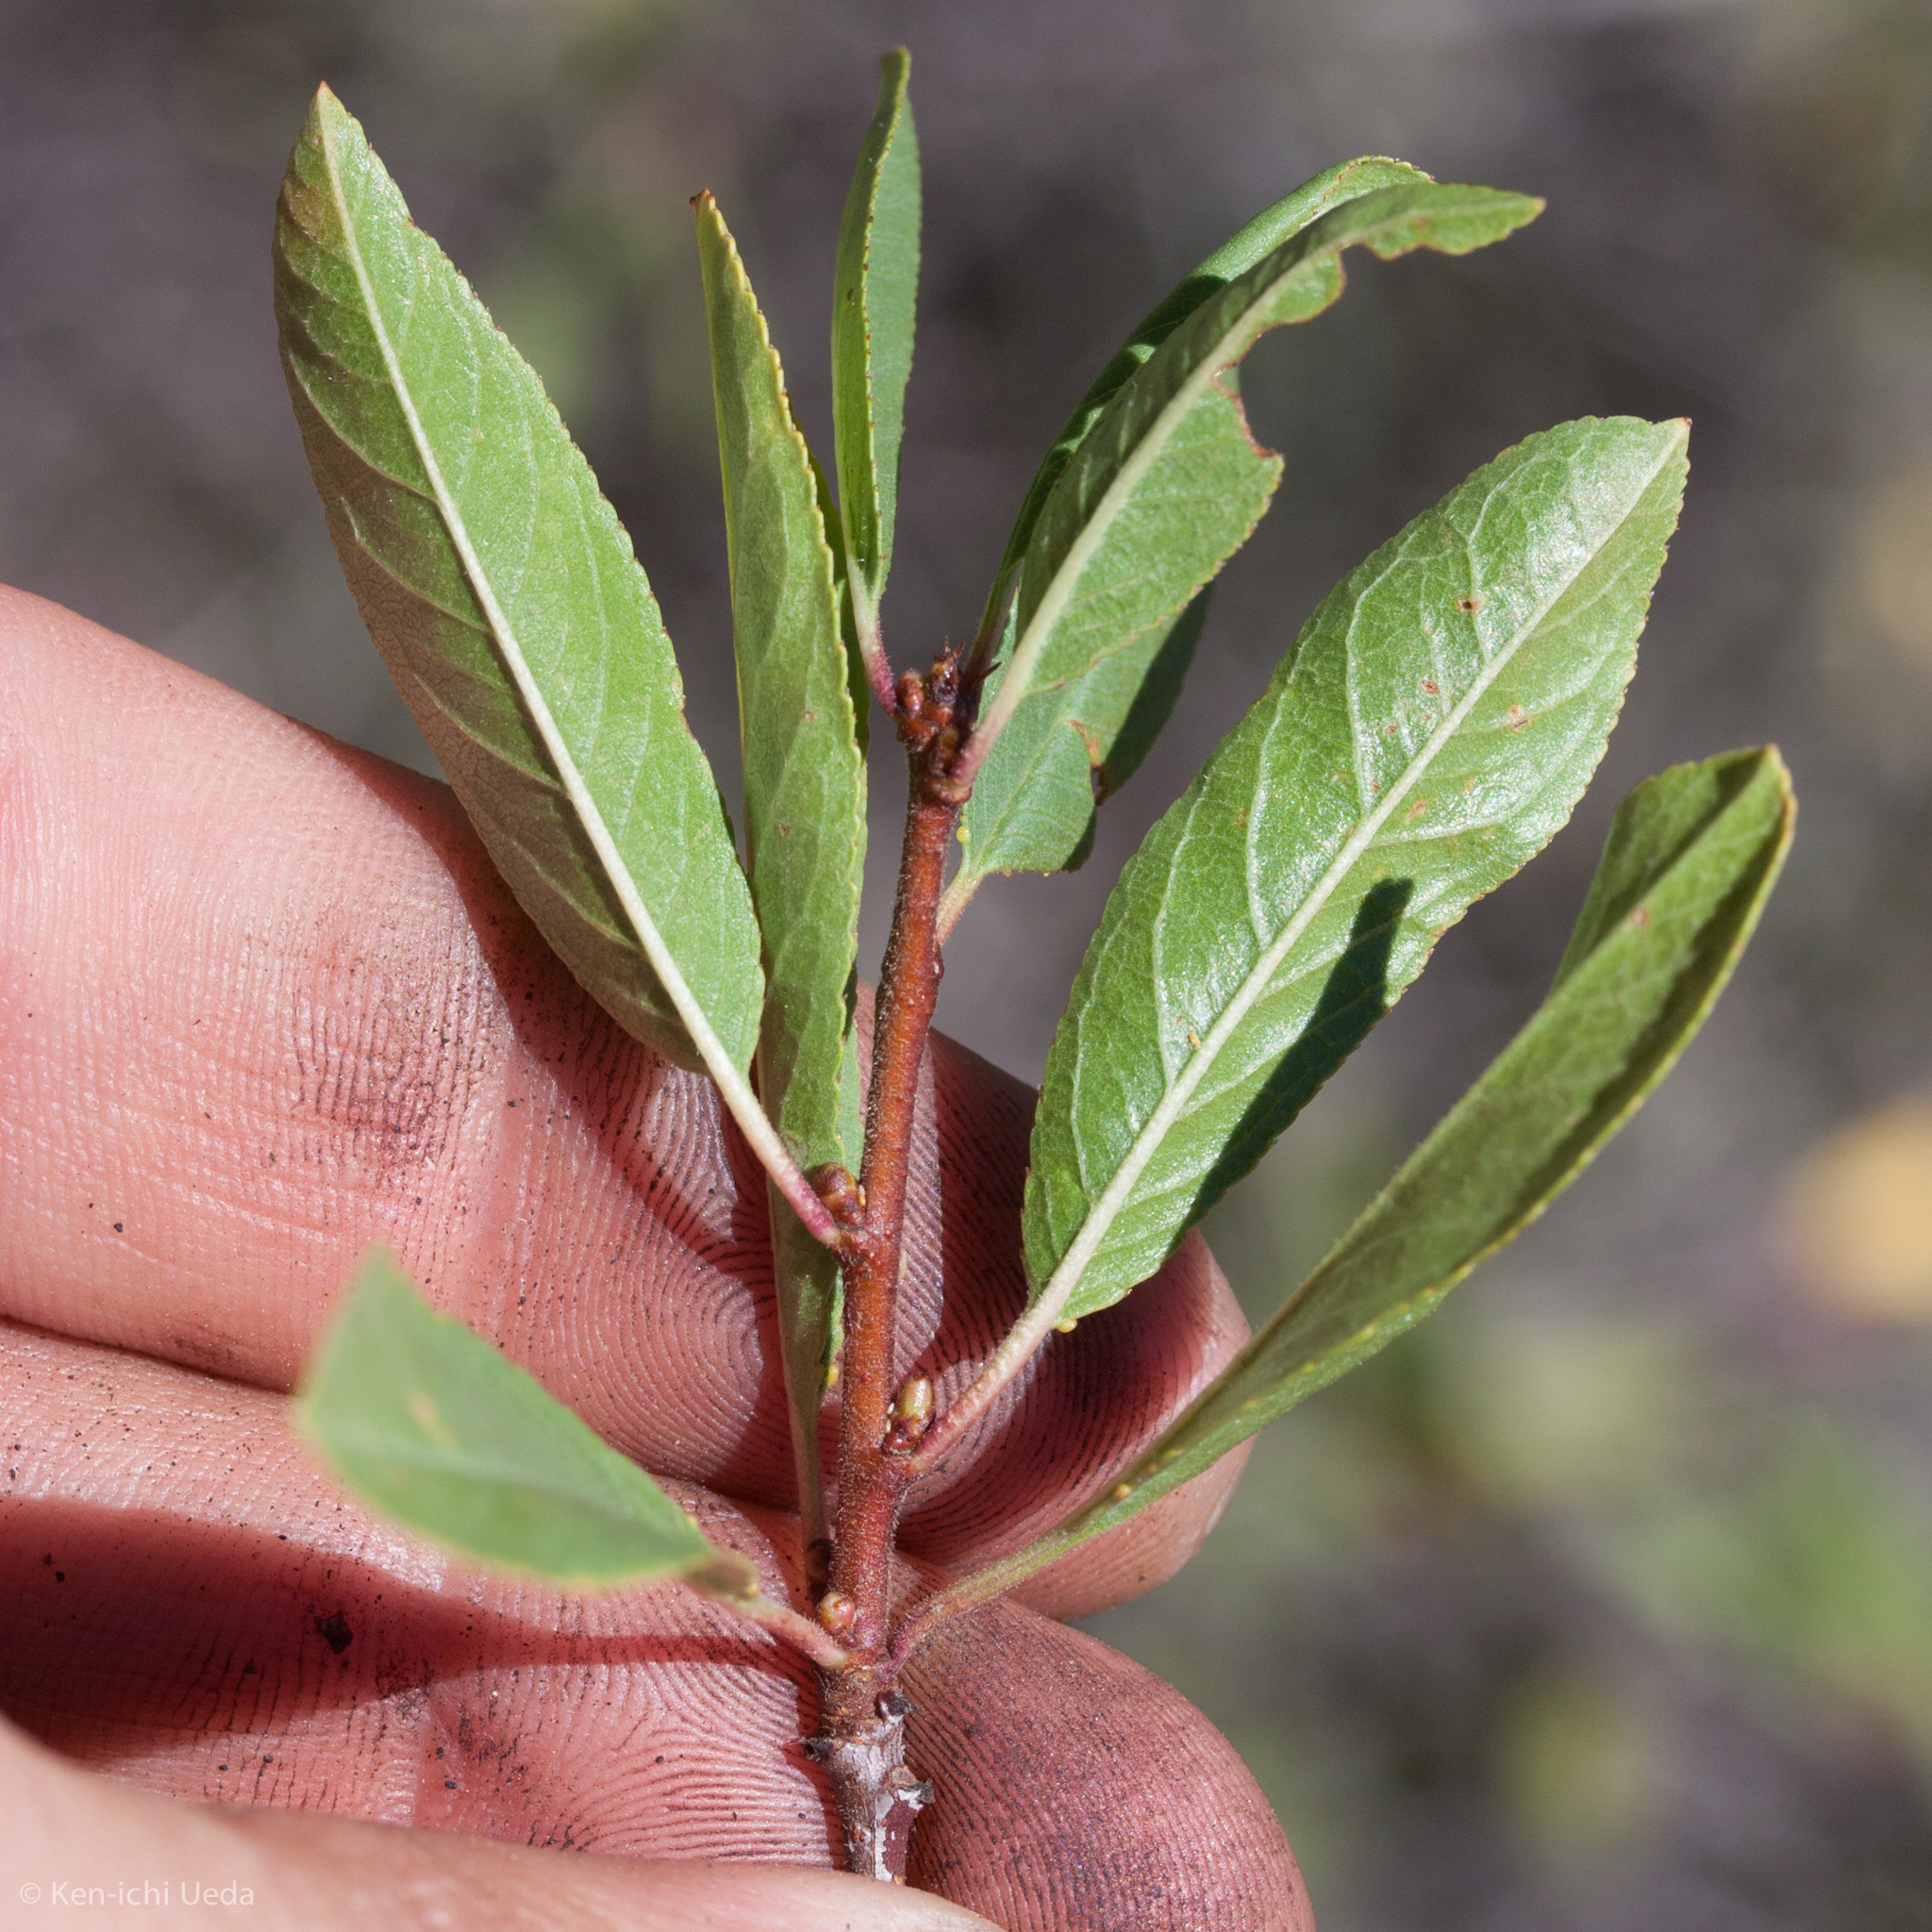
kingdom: Plantae
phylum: Tracheophyta
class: Magnoliopsida
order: Rosales
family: Rosaceae
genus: Prunus
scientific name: Prunus emarginata
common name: Bitter cherry
